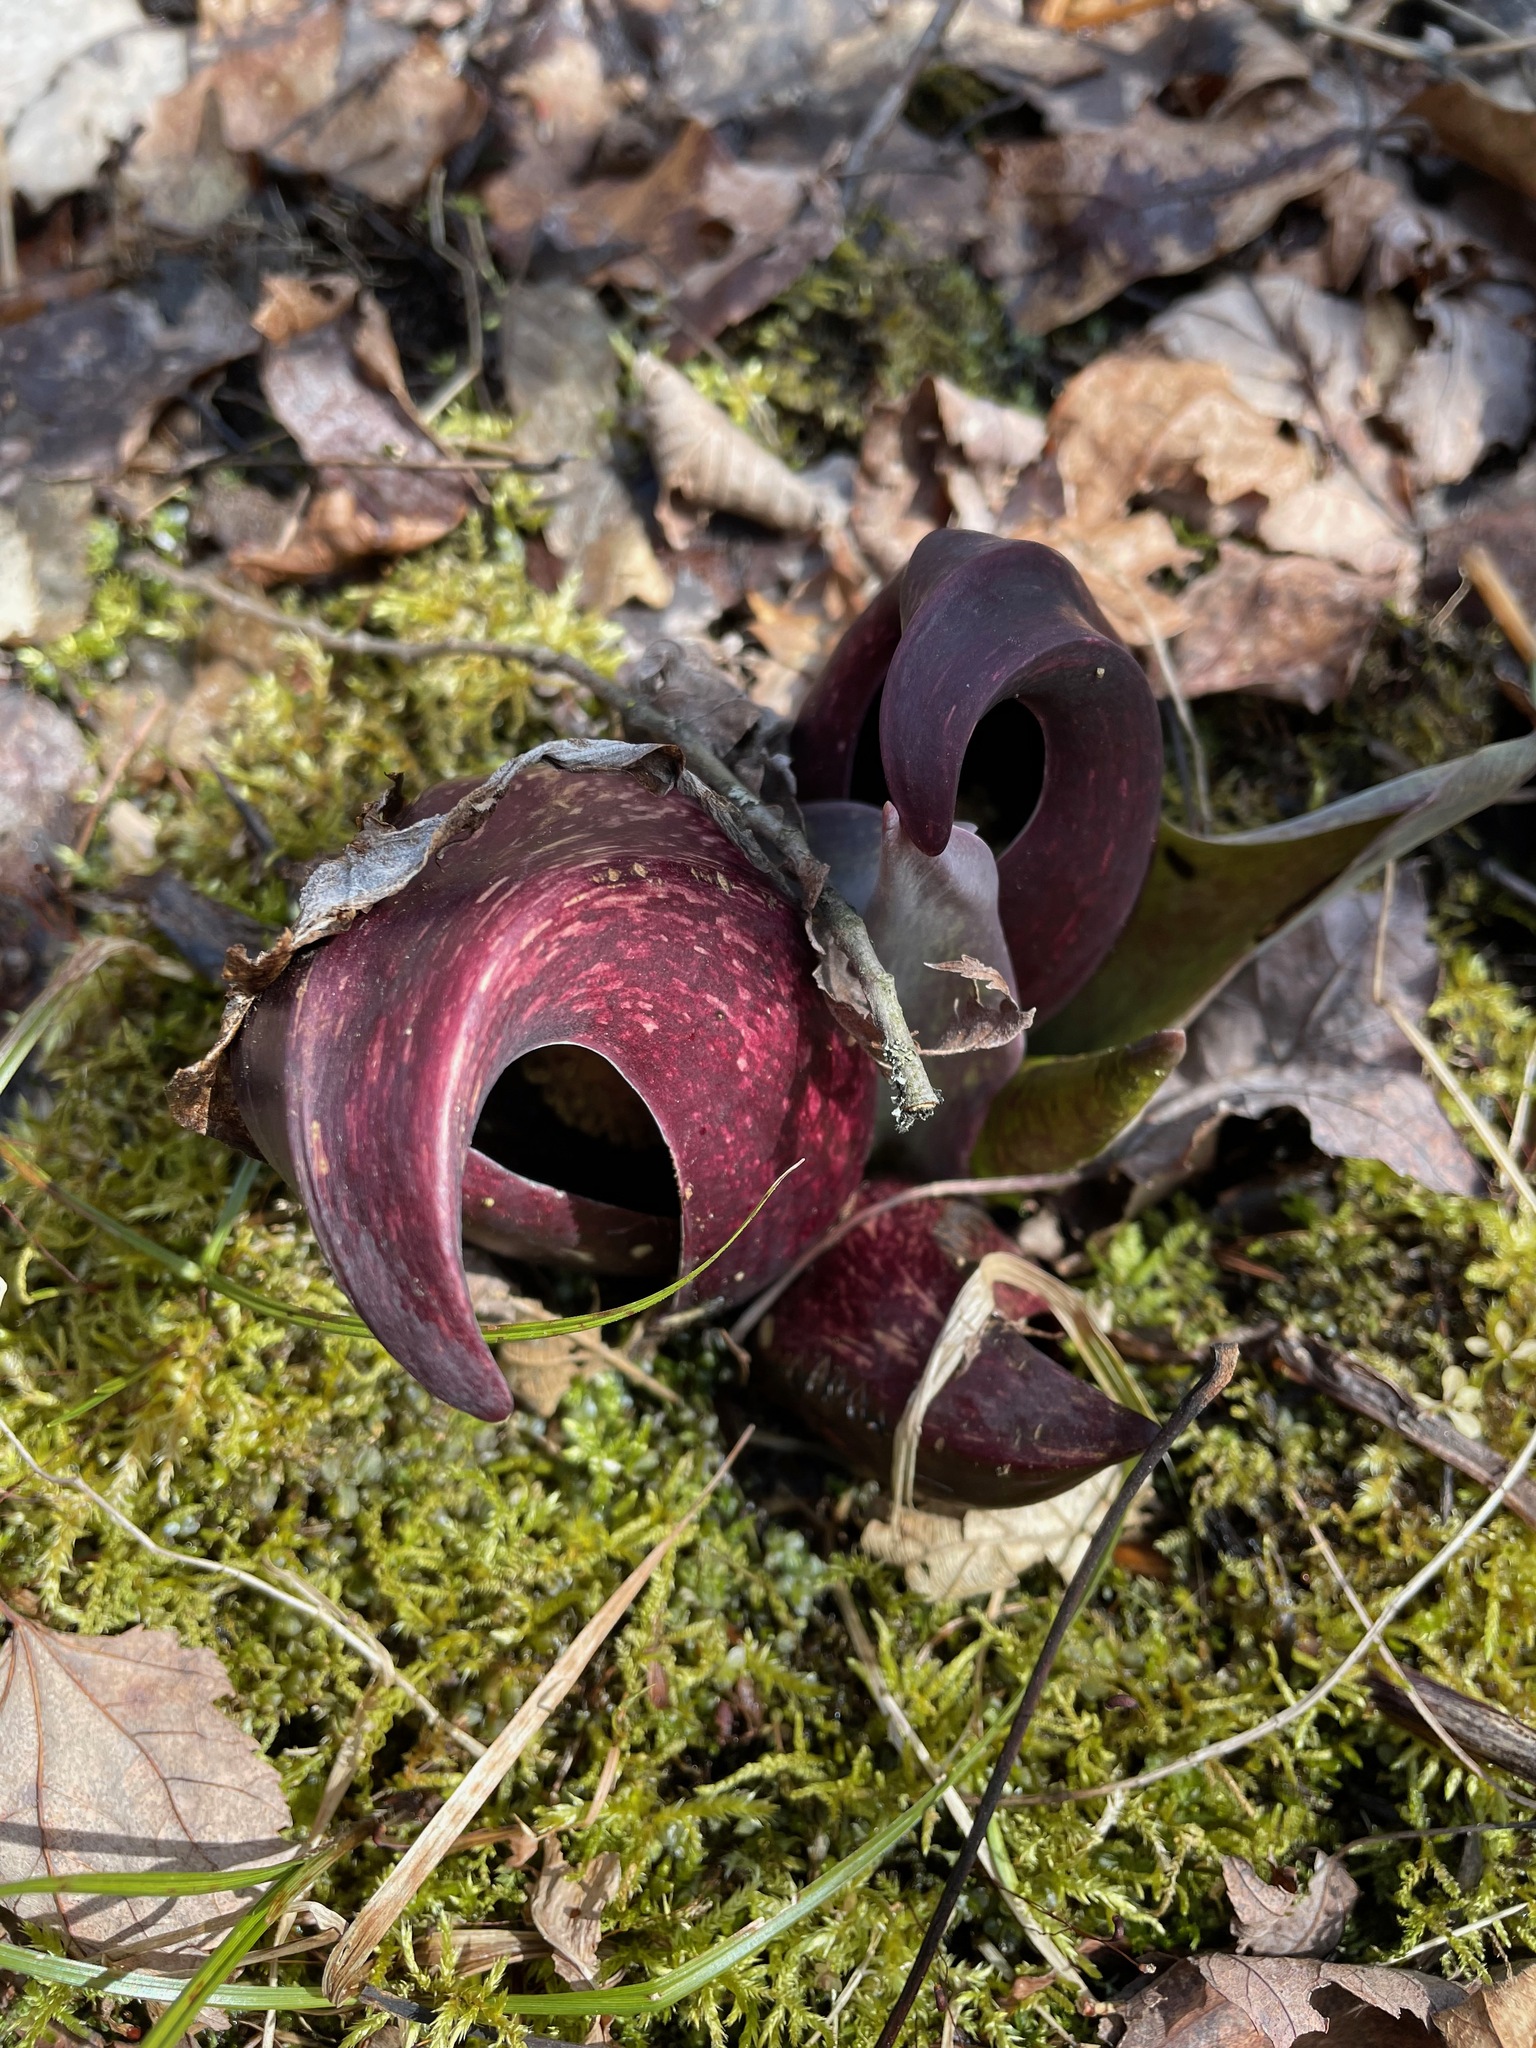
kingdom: Plantae
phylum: Tracheophyta
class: Liliopsida
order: Alismatales
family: Araceae
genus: Symplocarpus
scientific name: Symplocarpus foetidus
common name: Eastern skunk cabbage
